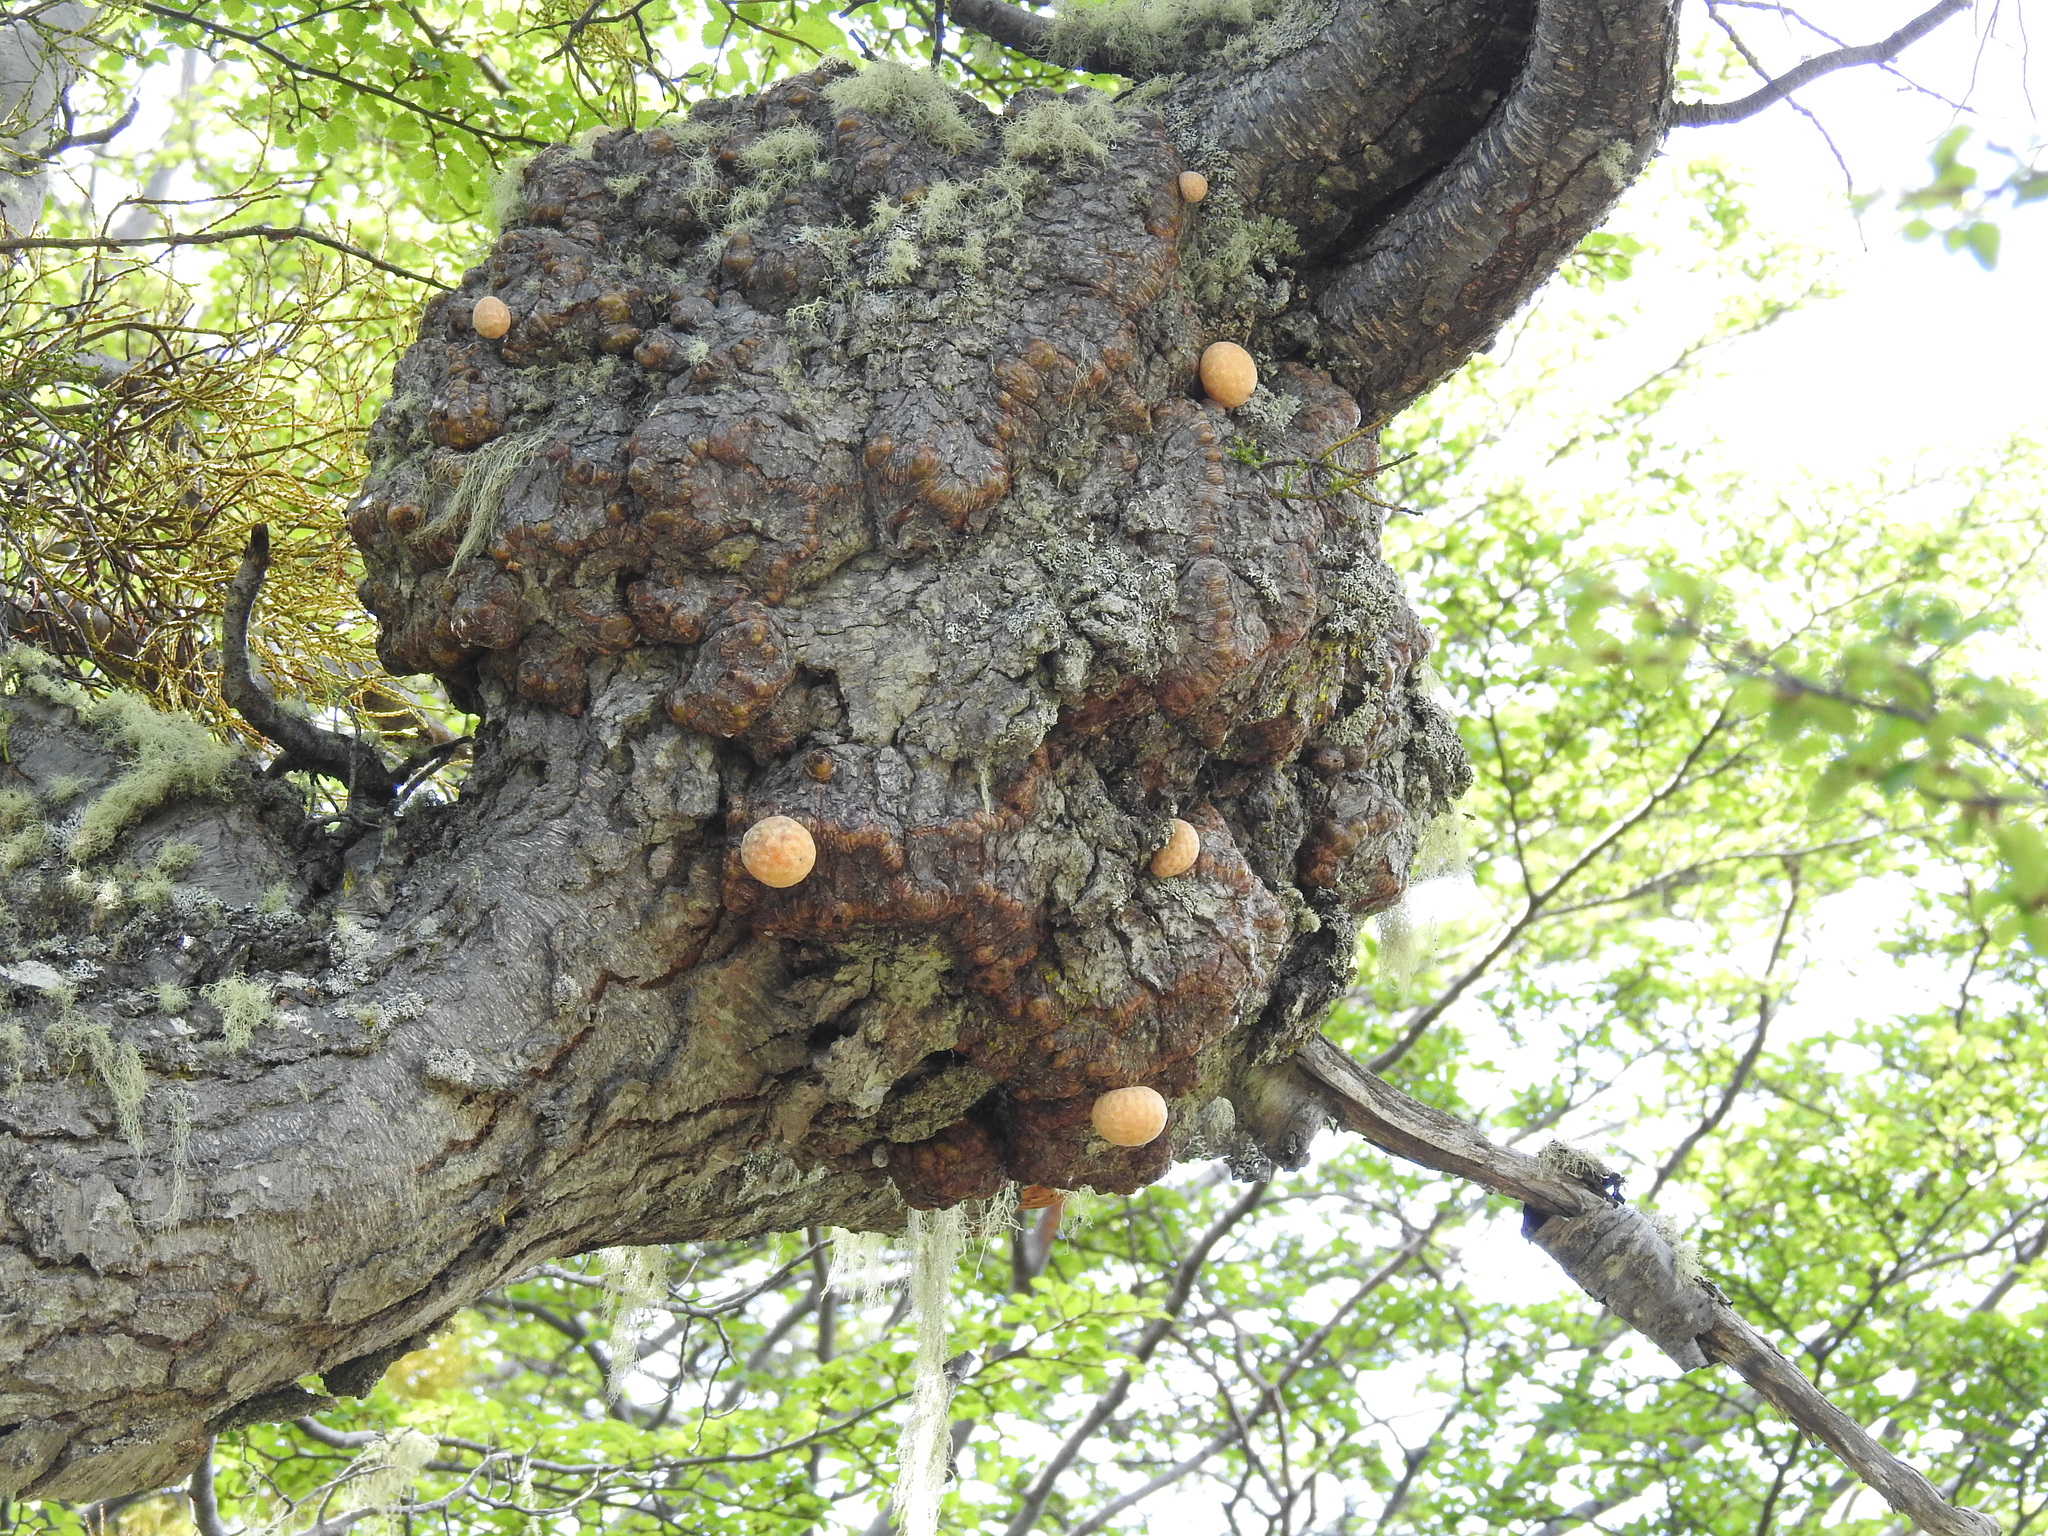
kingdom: Fungi
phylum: Ascomycota
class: Leotiomycetes
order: Cyttariales
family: Cyttariaceae
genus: Cyttaria
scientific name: Cyttaria darwinii
